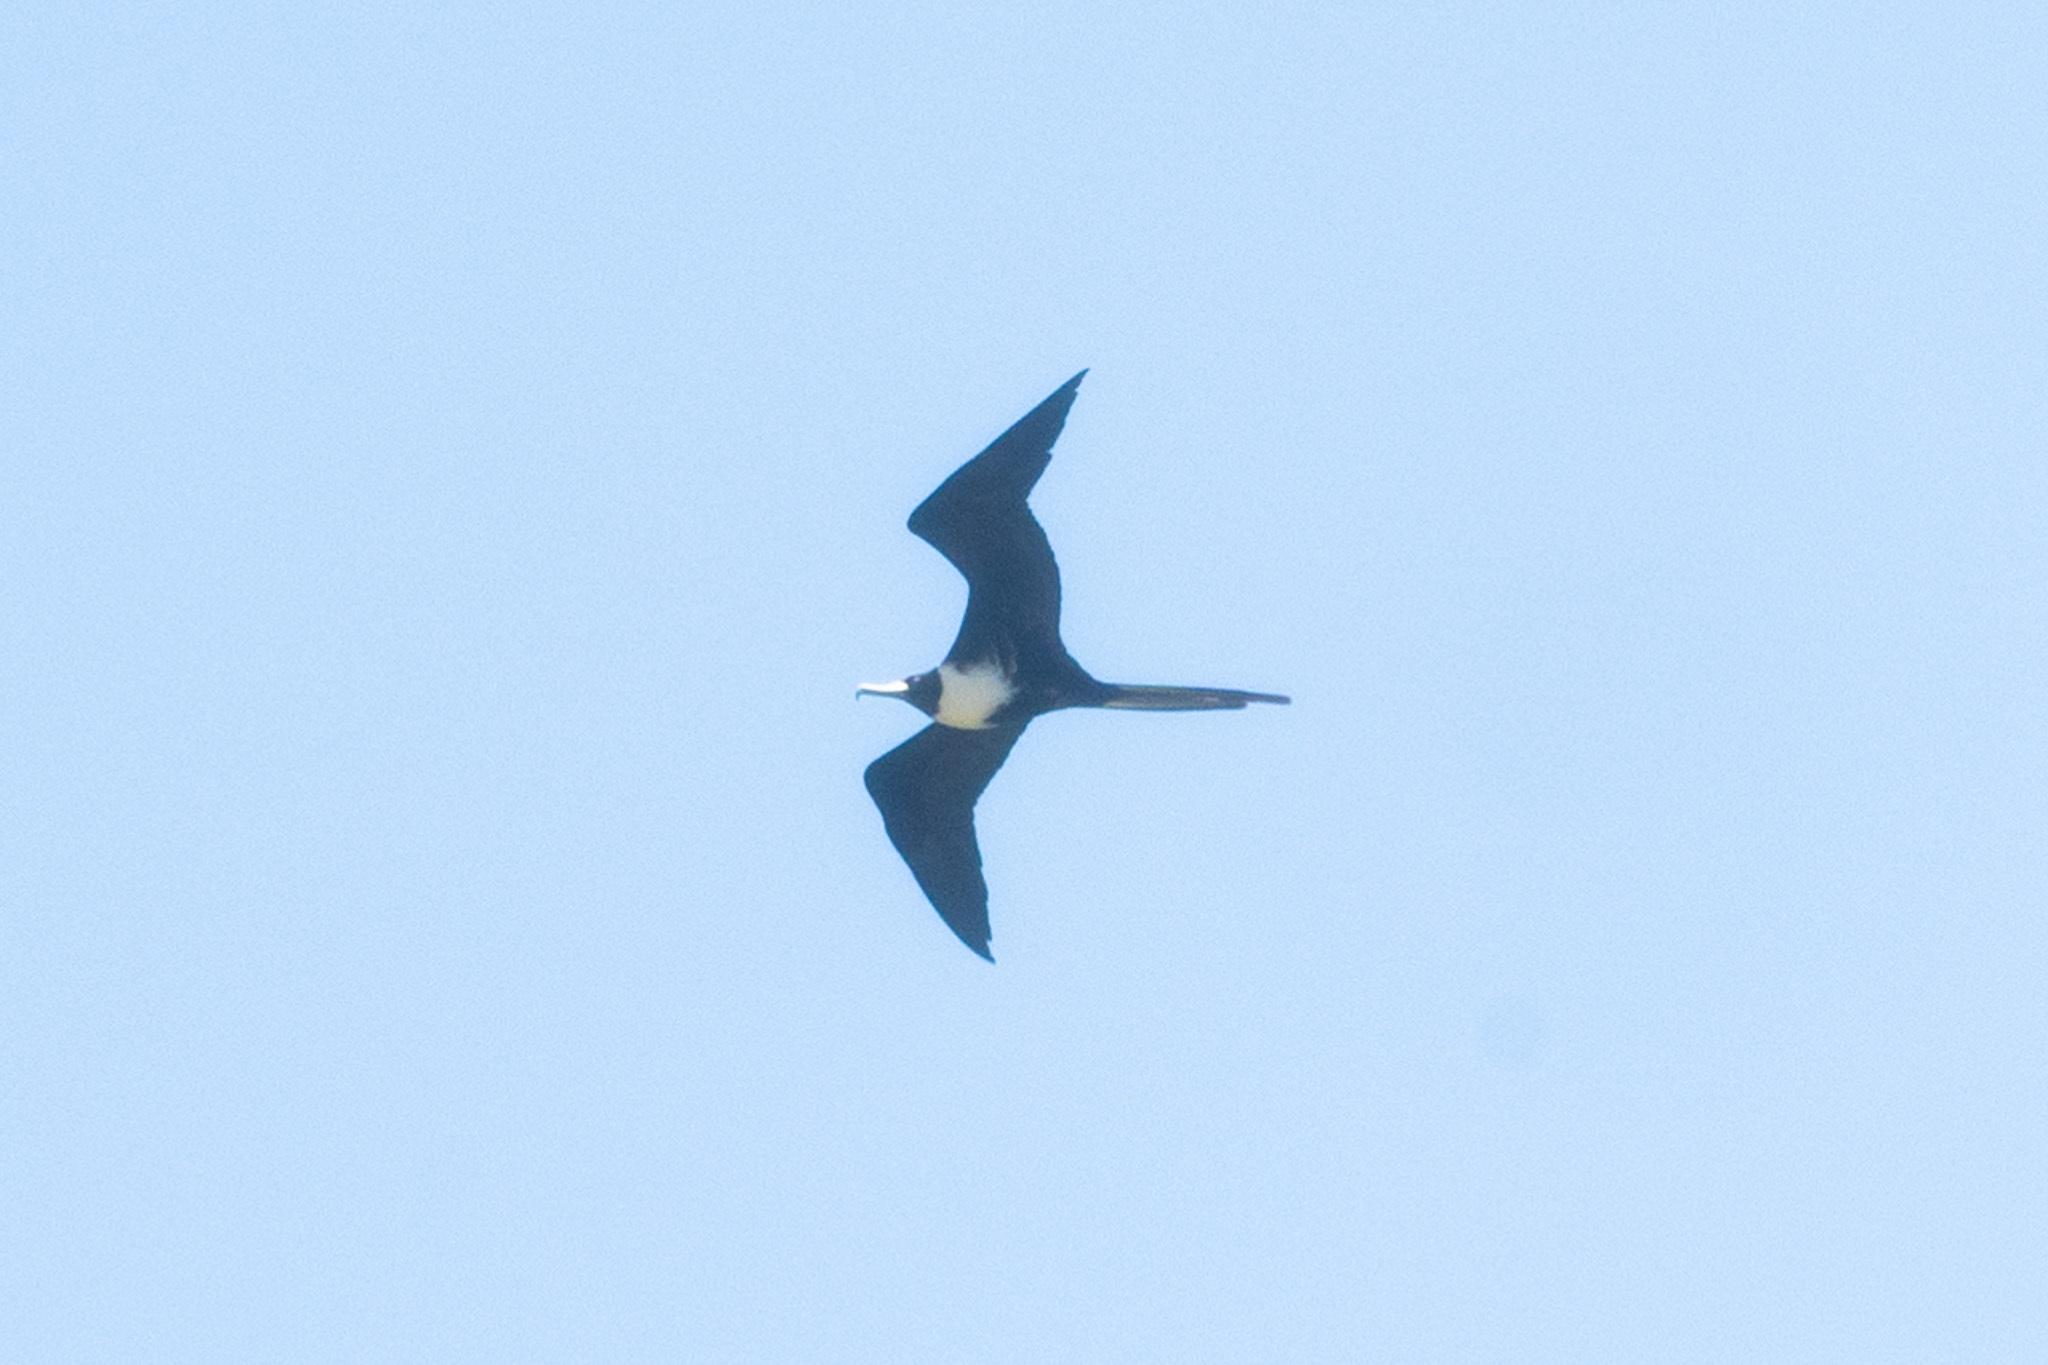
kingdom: Animalia
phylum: Chordata
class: Aves
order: Suliformes
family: Fregatidae
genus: Fregata
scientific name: Fregata magnificens
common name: Magnificent frigatebird
